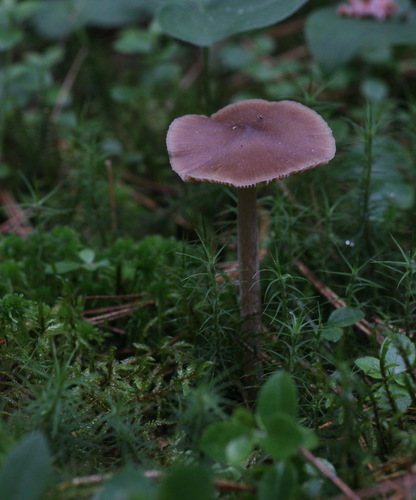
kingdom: Fungi
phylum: Basidiomycota
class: Agaricomycetes
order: Agaricales
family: Entolomataceae
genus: Entoloma
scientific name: Entoloma lanuginosipes
